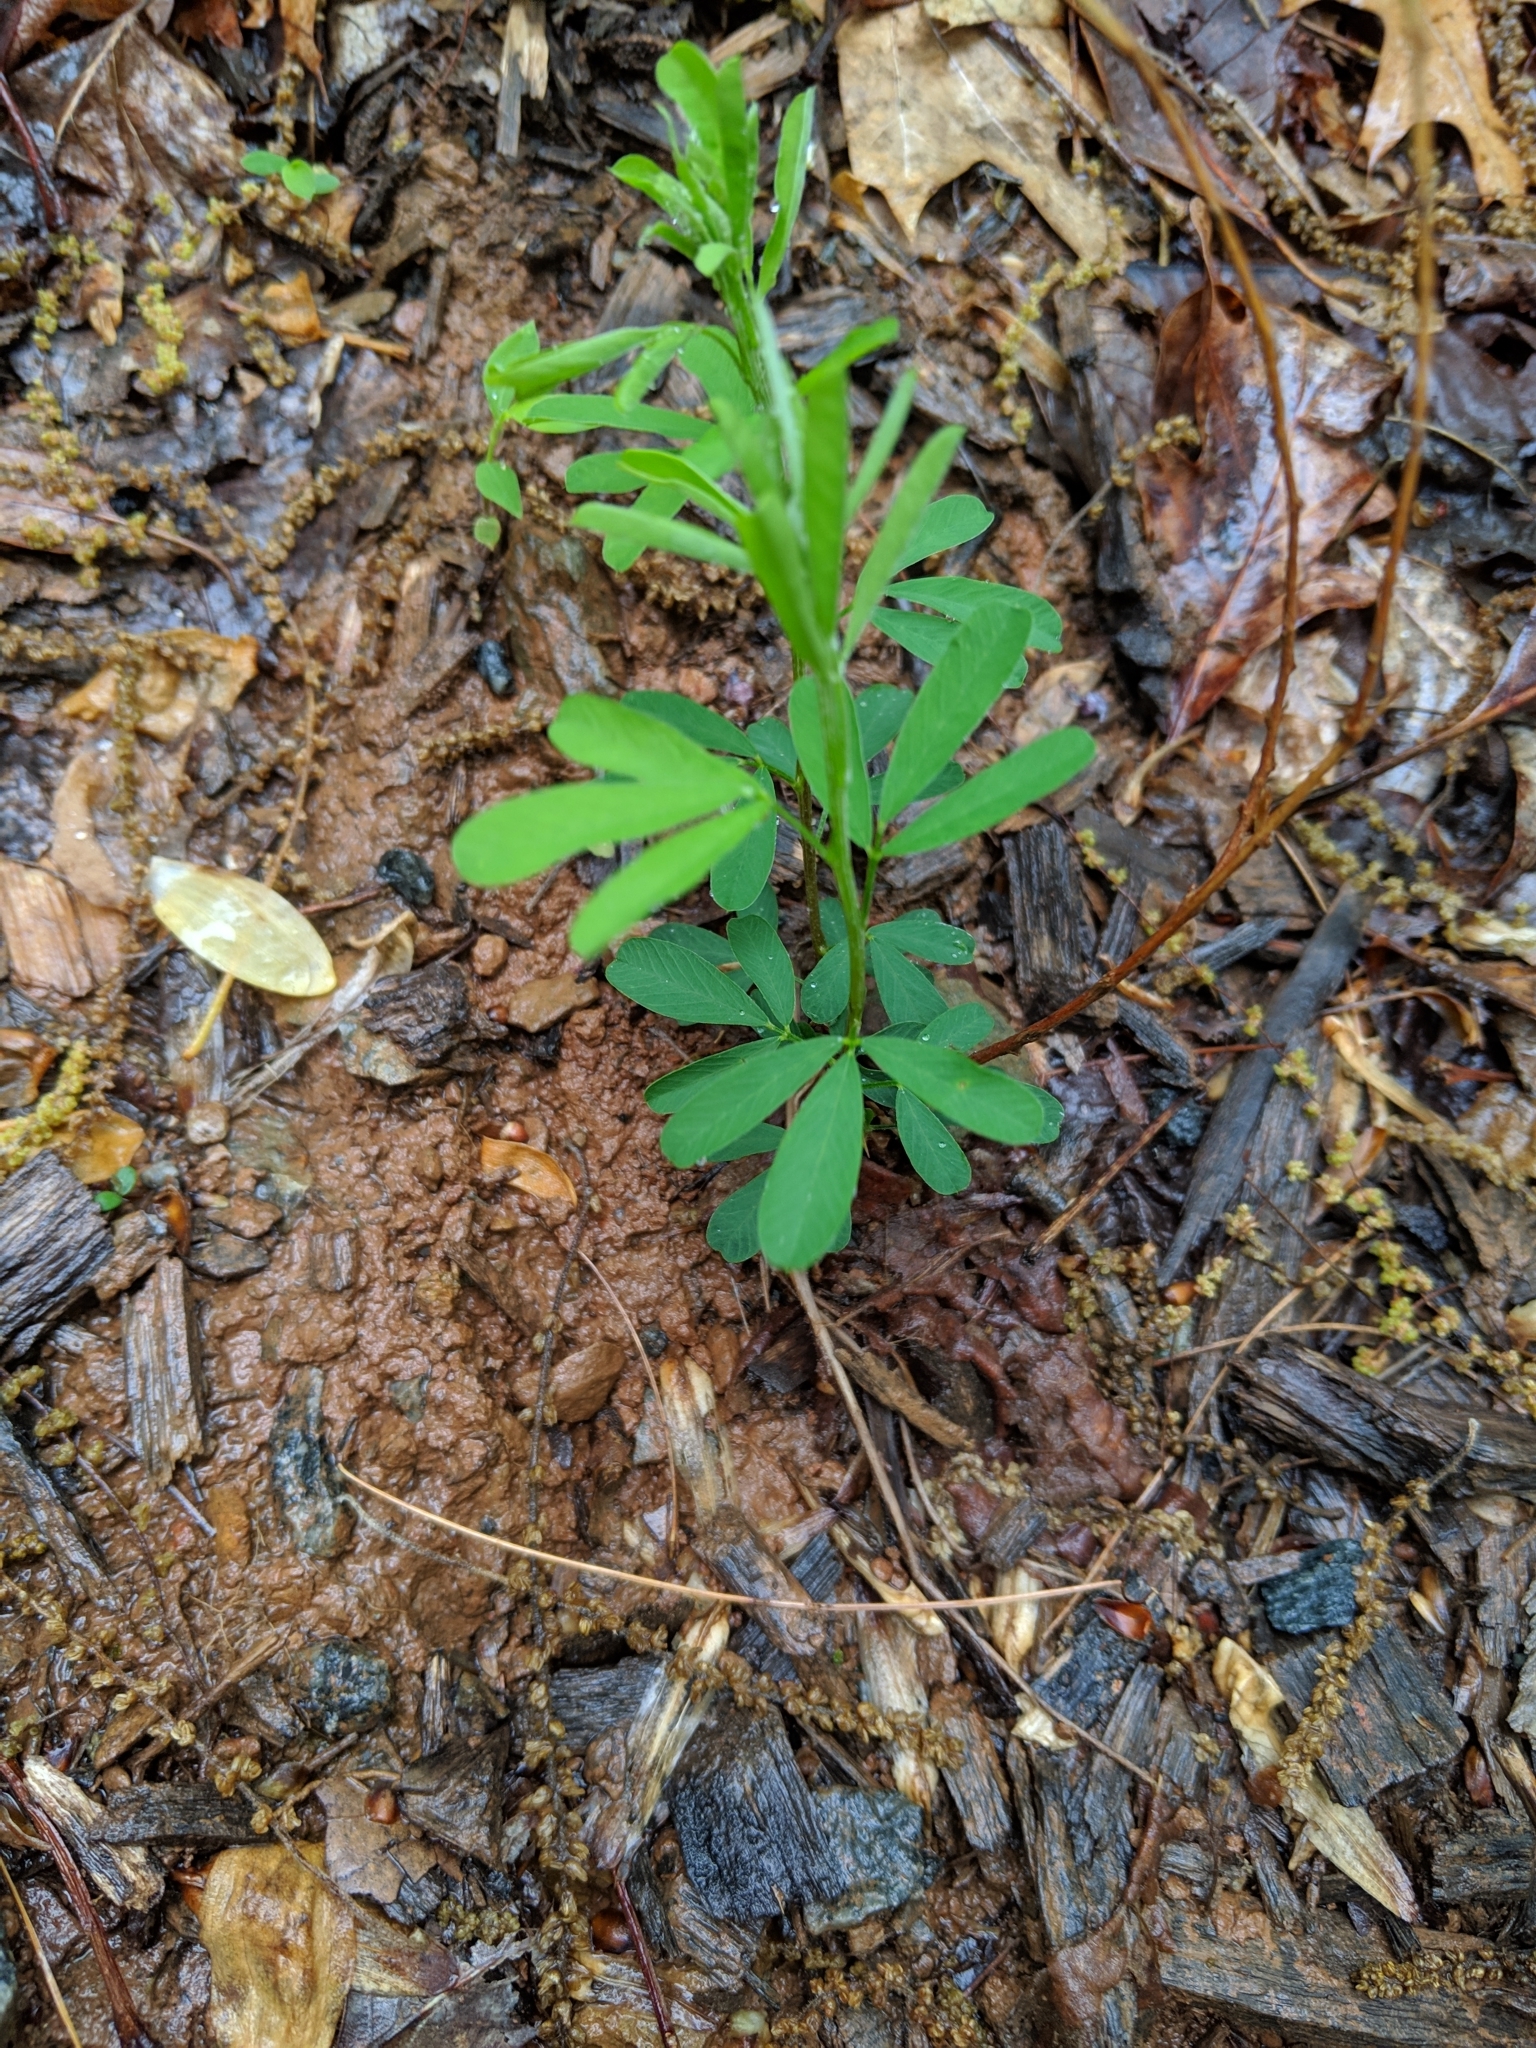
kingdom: Plantae
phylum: Tracheophyta
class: Magnoliopsida
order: Fabales
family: Fabaceae
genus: Lespedeza
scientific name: Lespedeza cuneata
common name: Chinese bush-clover
